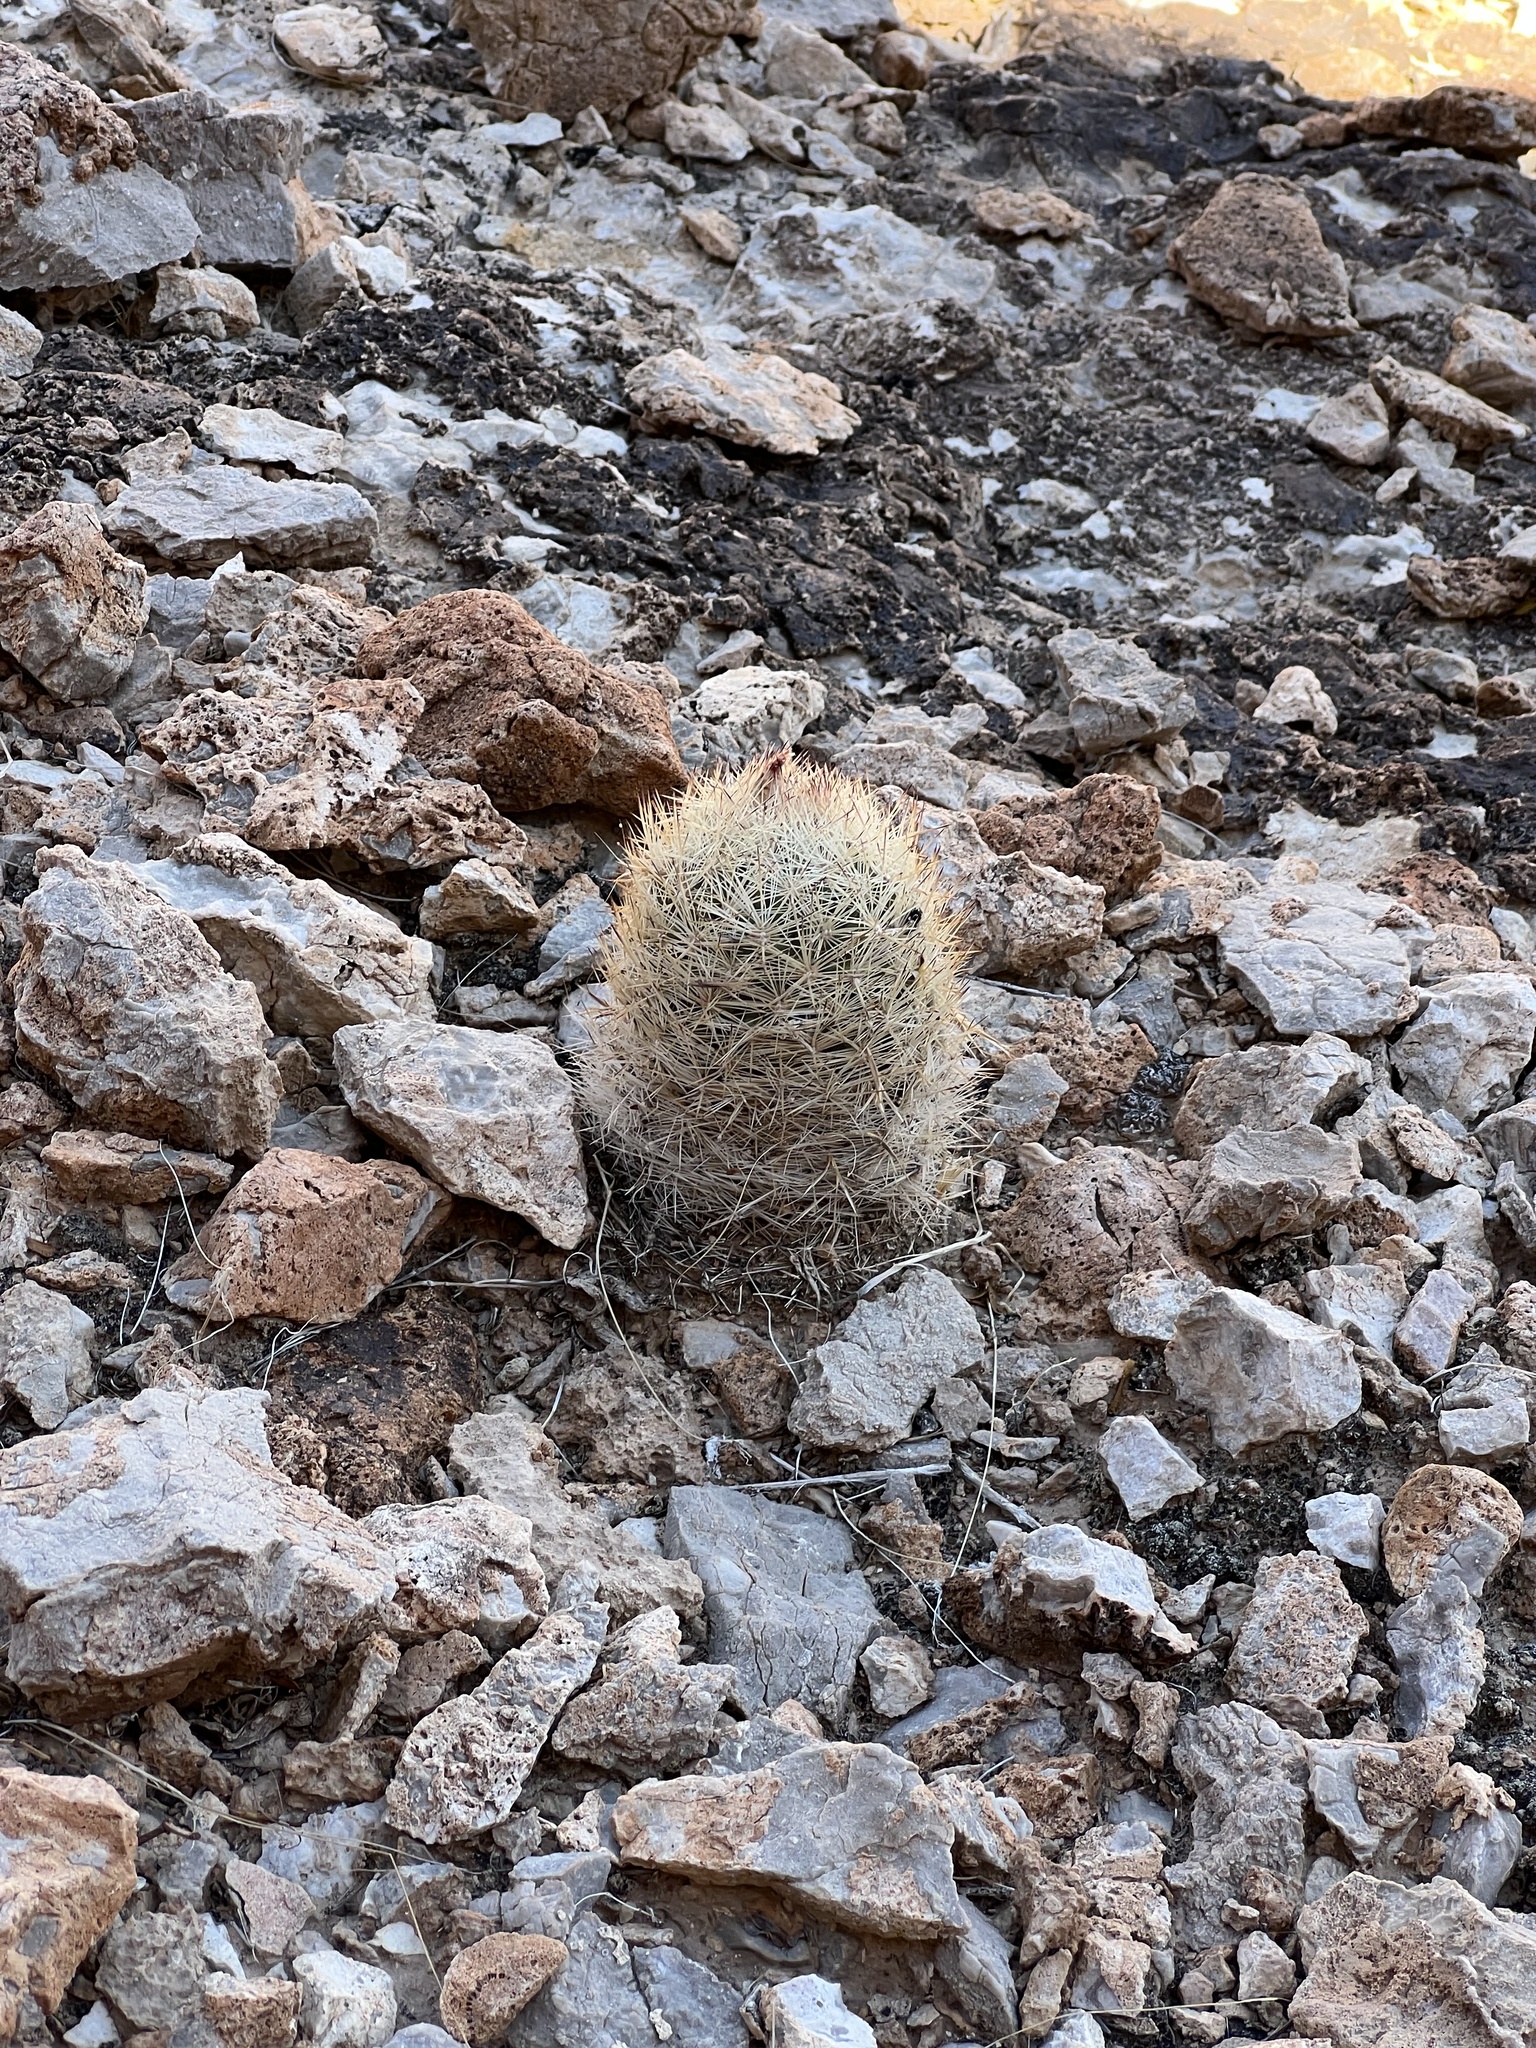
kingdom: Plantae
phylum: Tracheophyta
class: Magnoliopsida
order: Caryophyllales
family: Cactaceae
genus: Pelecyphora
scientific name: Pelecyphora dasyacantha
